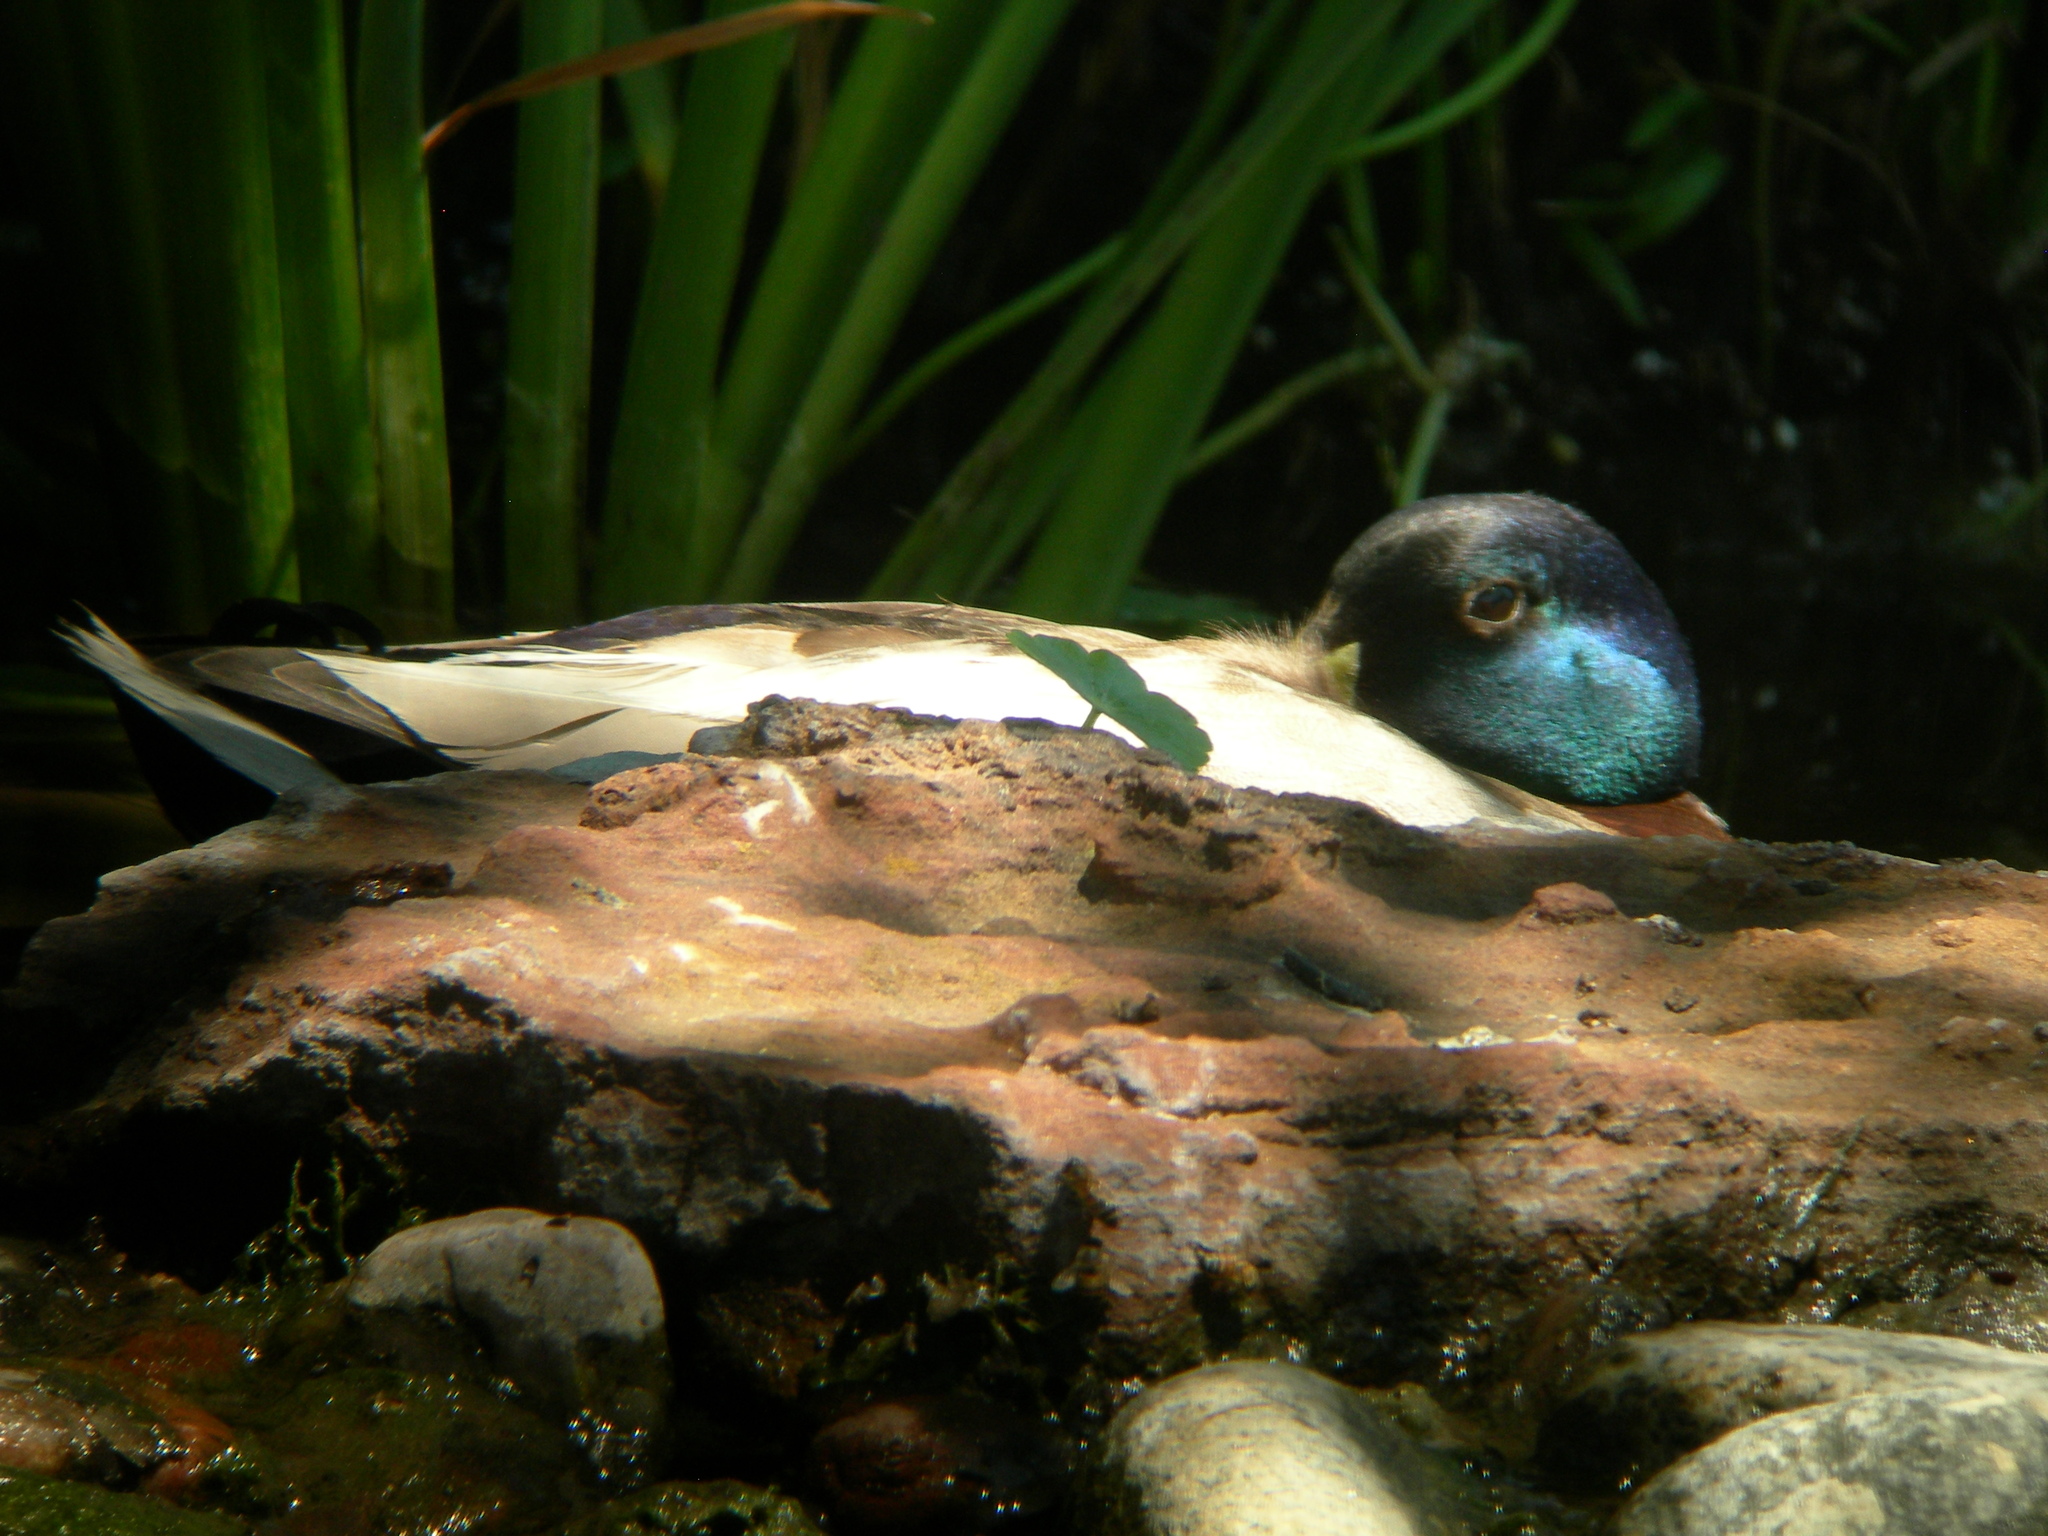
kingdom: Animalia
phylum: Chordata
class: Aves
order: Anseriformes
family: Anatidae
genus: Anas
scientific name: Anas platyrhynchos
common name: Mallard
